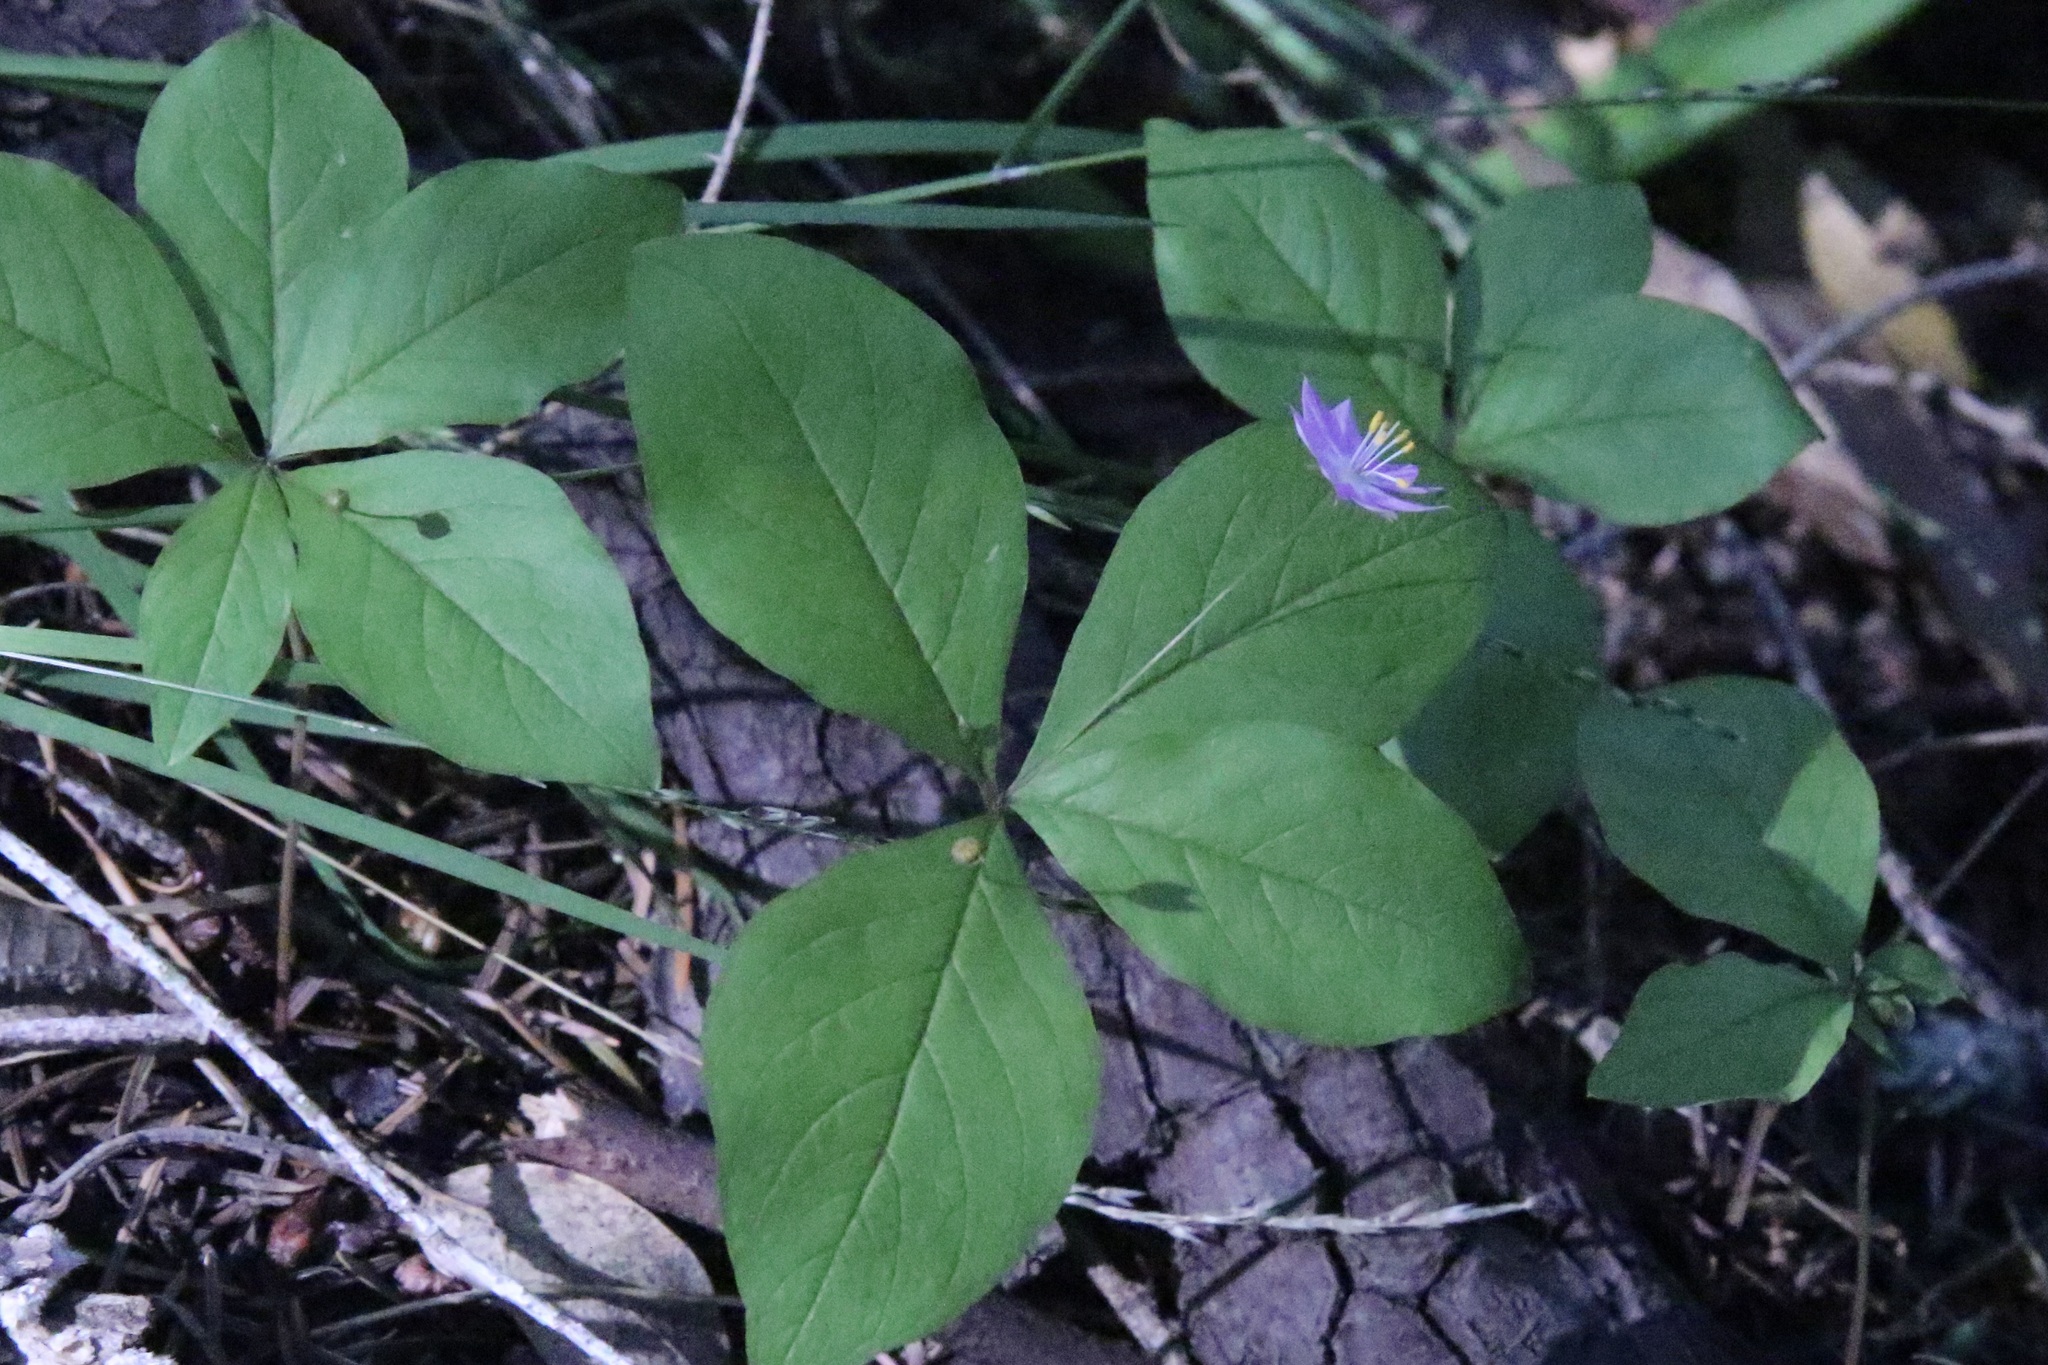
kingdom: Plantae
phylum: Tracheophyta
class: Magnoliopsida
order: Ericales
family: Primulaceae
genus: Lysimachia
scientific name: Lysimachia latifolia
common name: Pacific starflower
